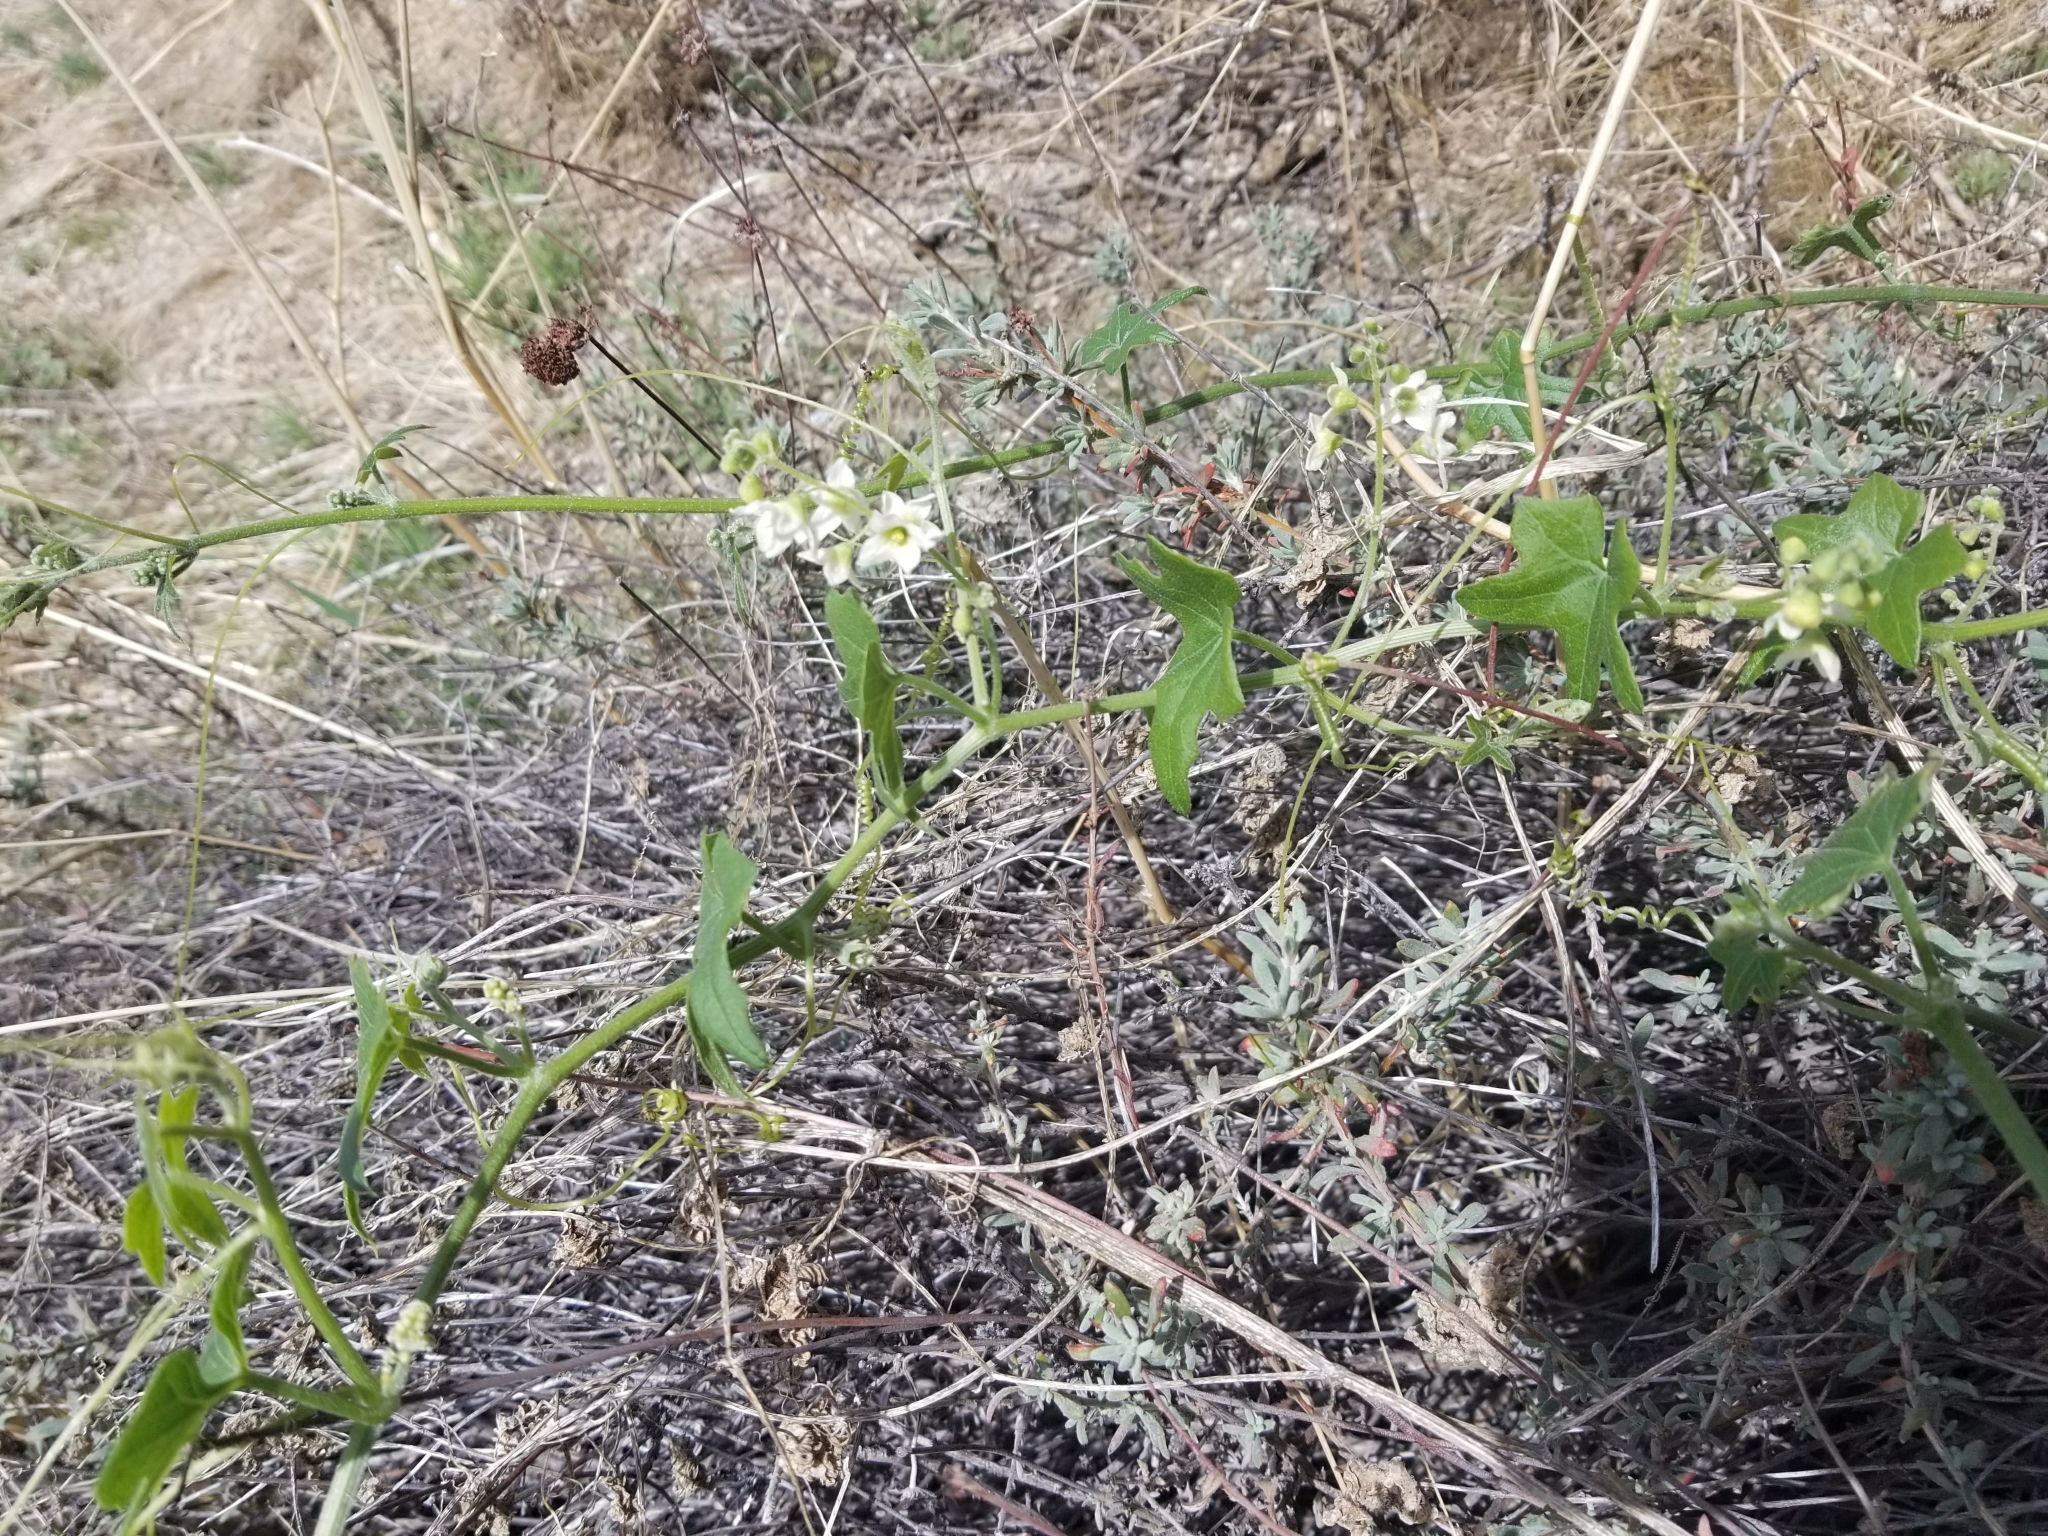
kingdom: Plantae
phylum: Tracheophyta
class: Magnoliopsida
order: Cucurbitales
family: Cucurbitaceae
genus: Marah
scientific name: Marah macrocarpa
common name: Cucamonga manroot
